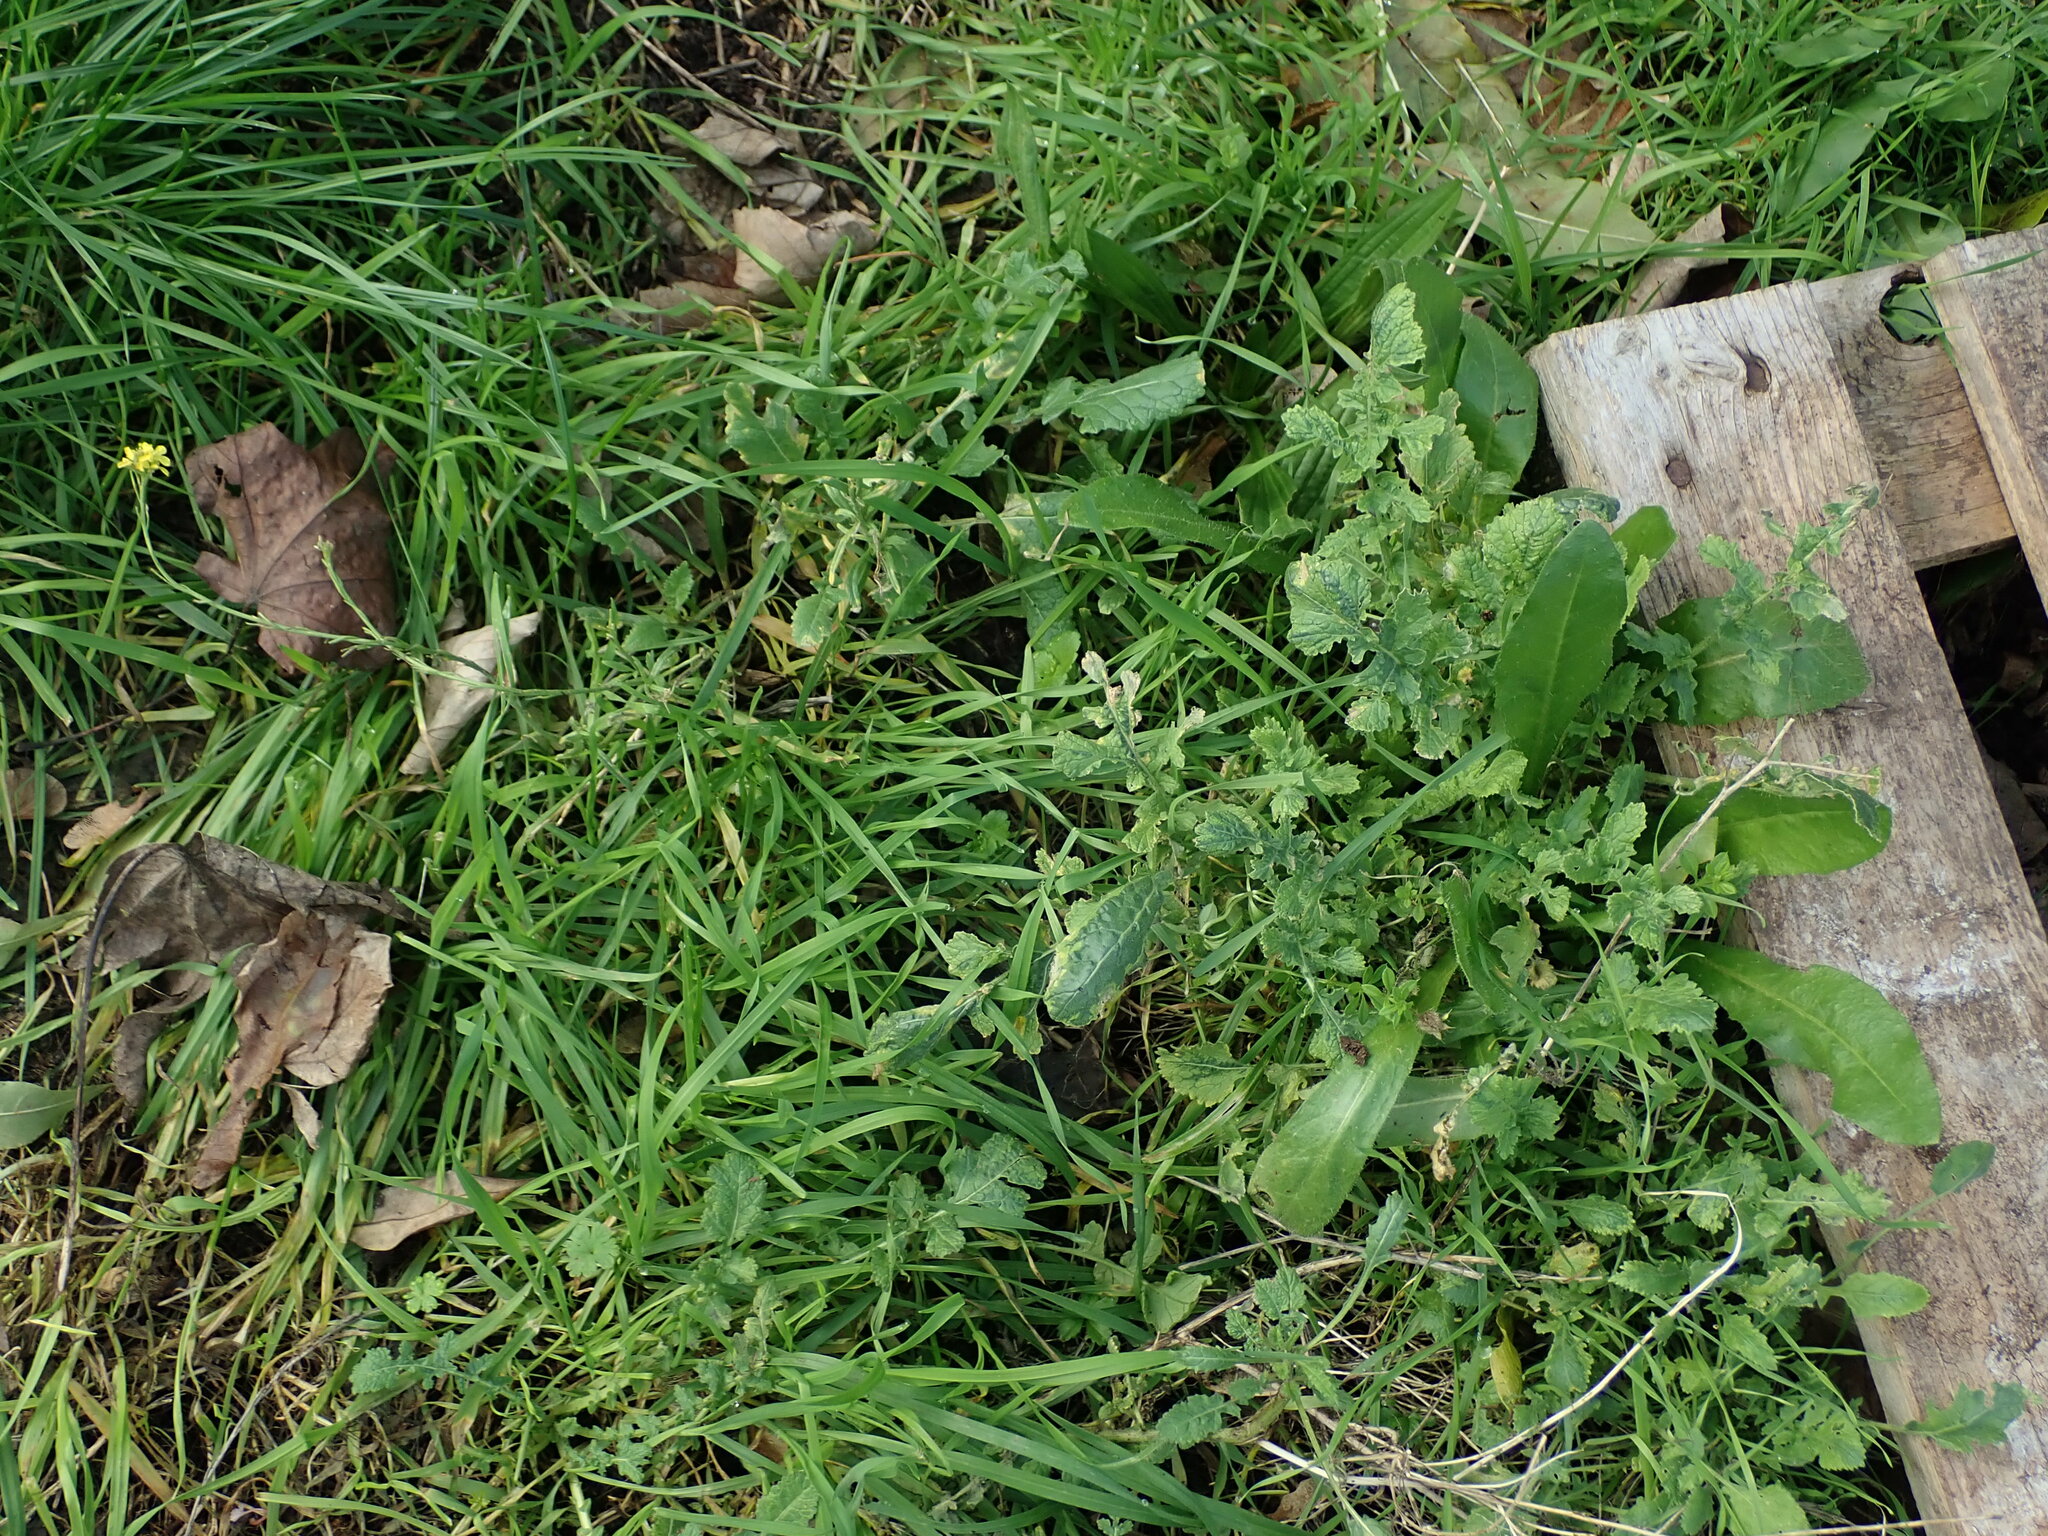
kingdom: Plantae
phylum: Tracheophyta
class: Magnoliopsida
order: Brassicales
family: Brassicaceae
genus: Hirschfeldia
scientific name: Hirschfeldia incana
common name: Hoary mustard
